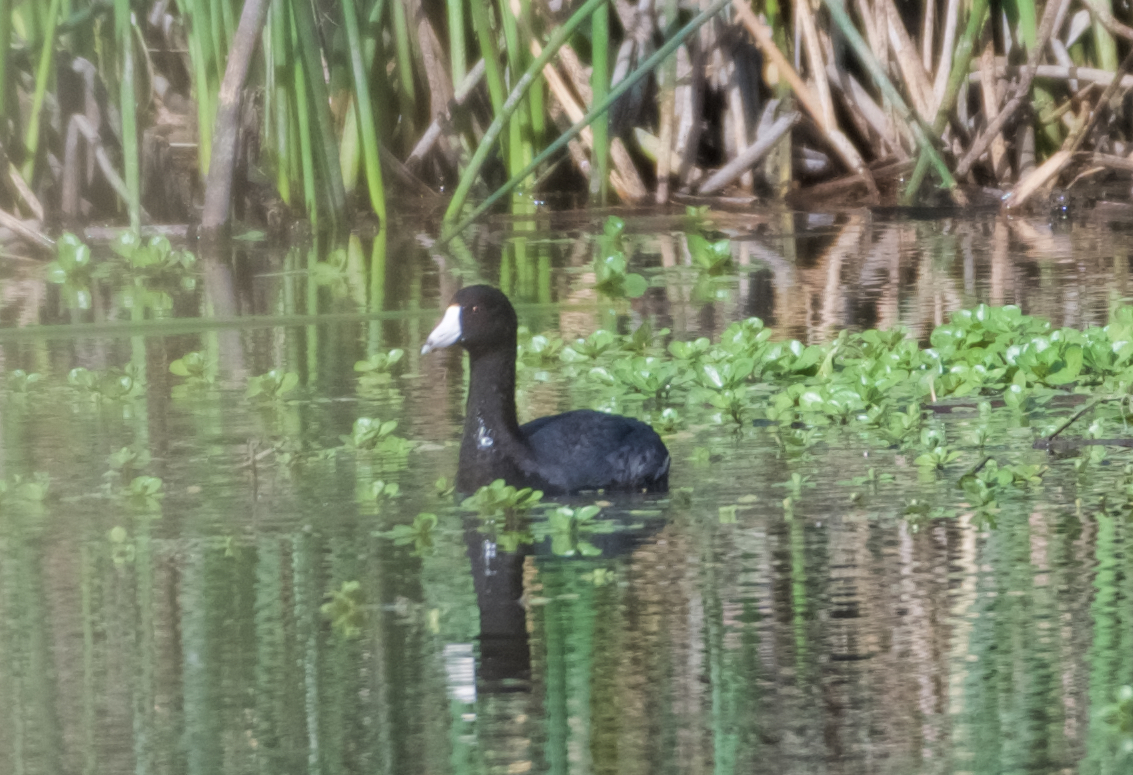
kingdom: Animalia
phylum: Chordata
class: Aves
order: Gruiformes
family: Rallidae
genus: Fulica
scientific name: Fulica americana
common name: American coot
